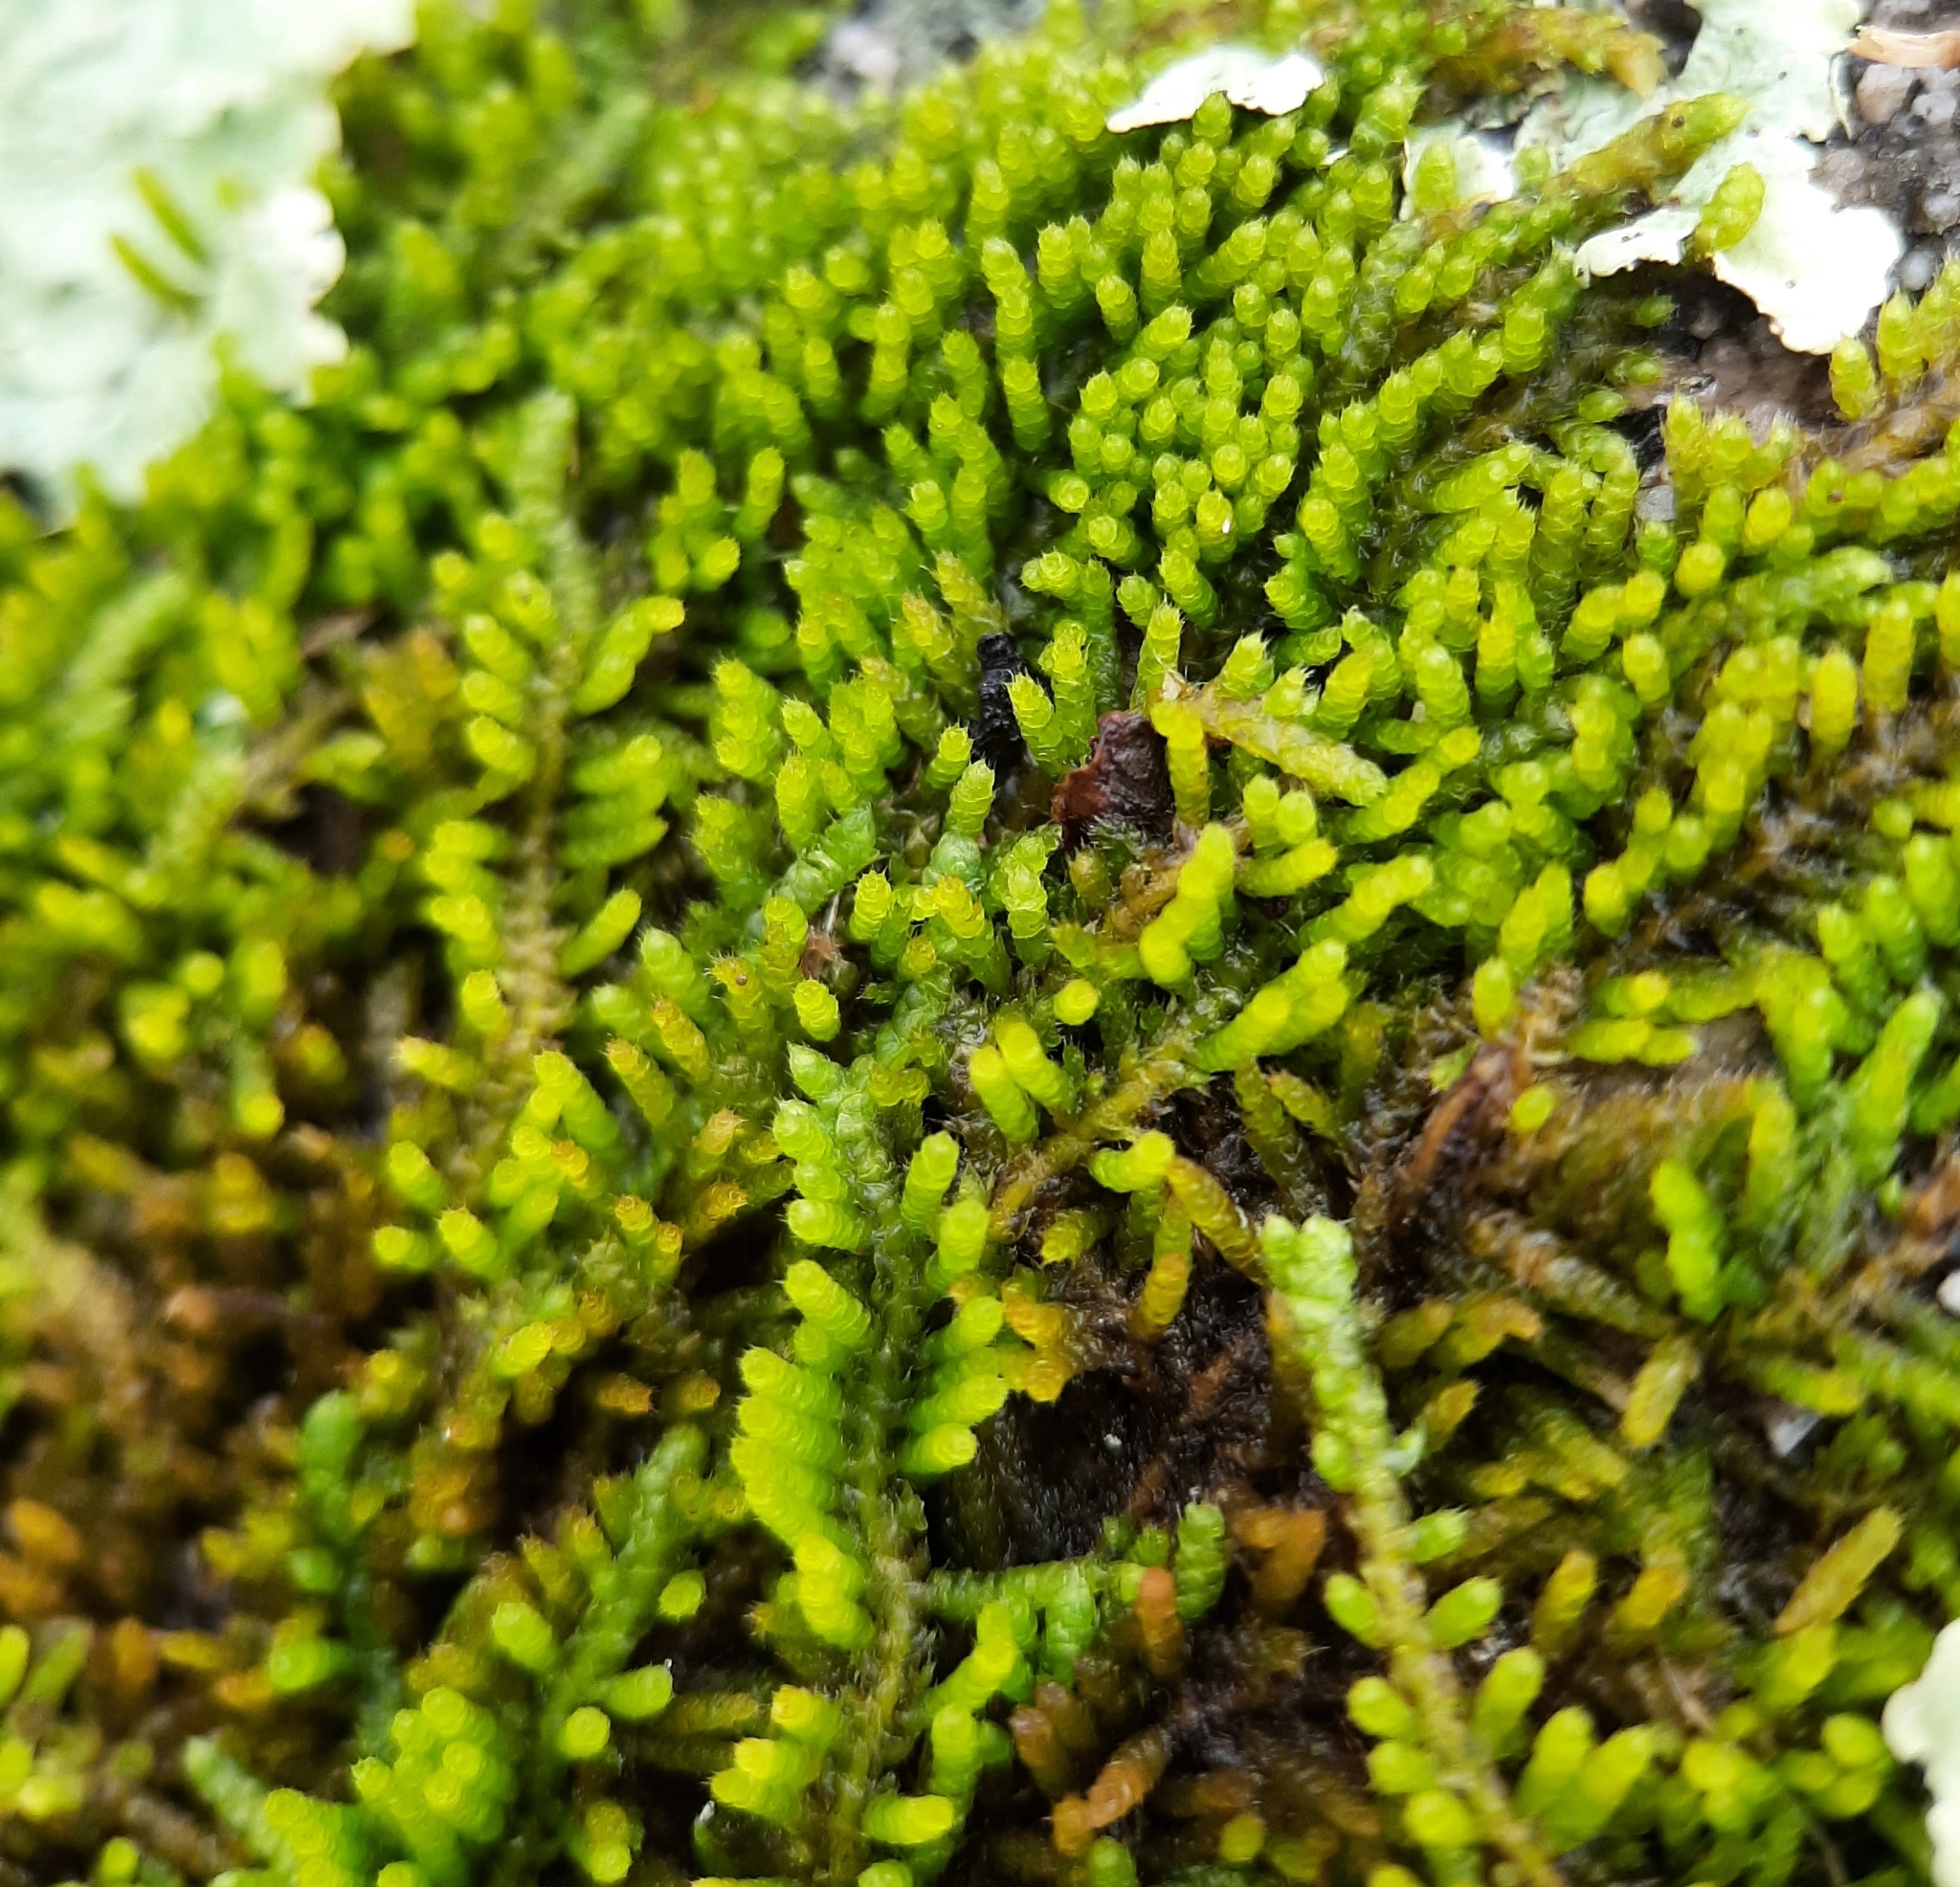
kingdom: Plantae
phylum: Bryophyta
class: Bryopsida
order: Hypnales
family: Theliaceae
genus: Thelia
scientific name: Thelia hirtella
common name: Common thelia
